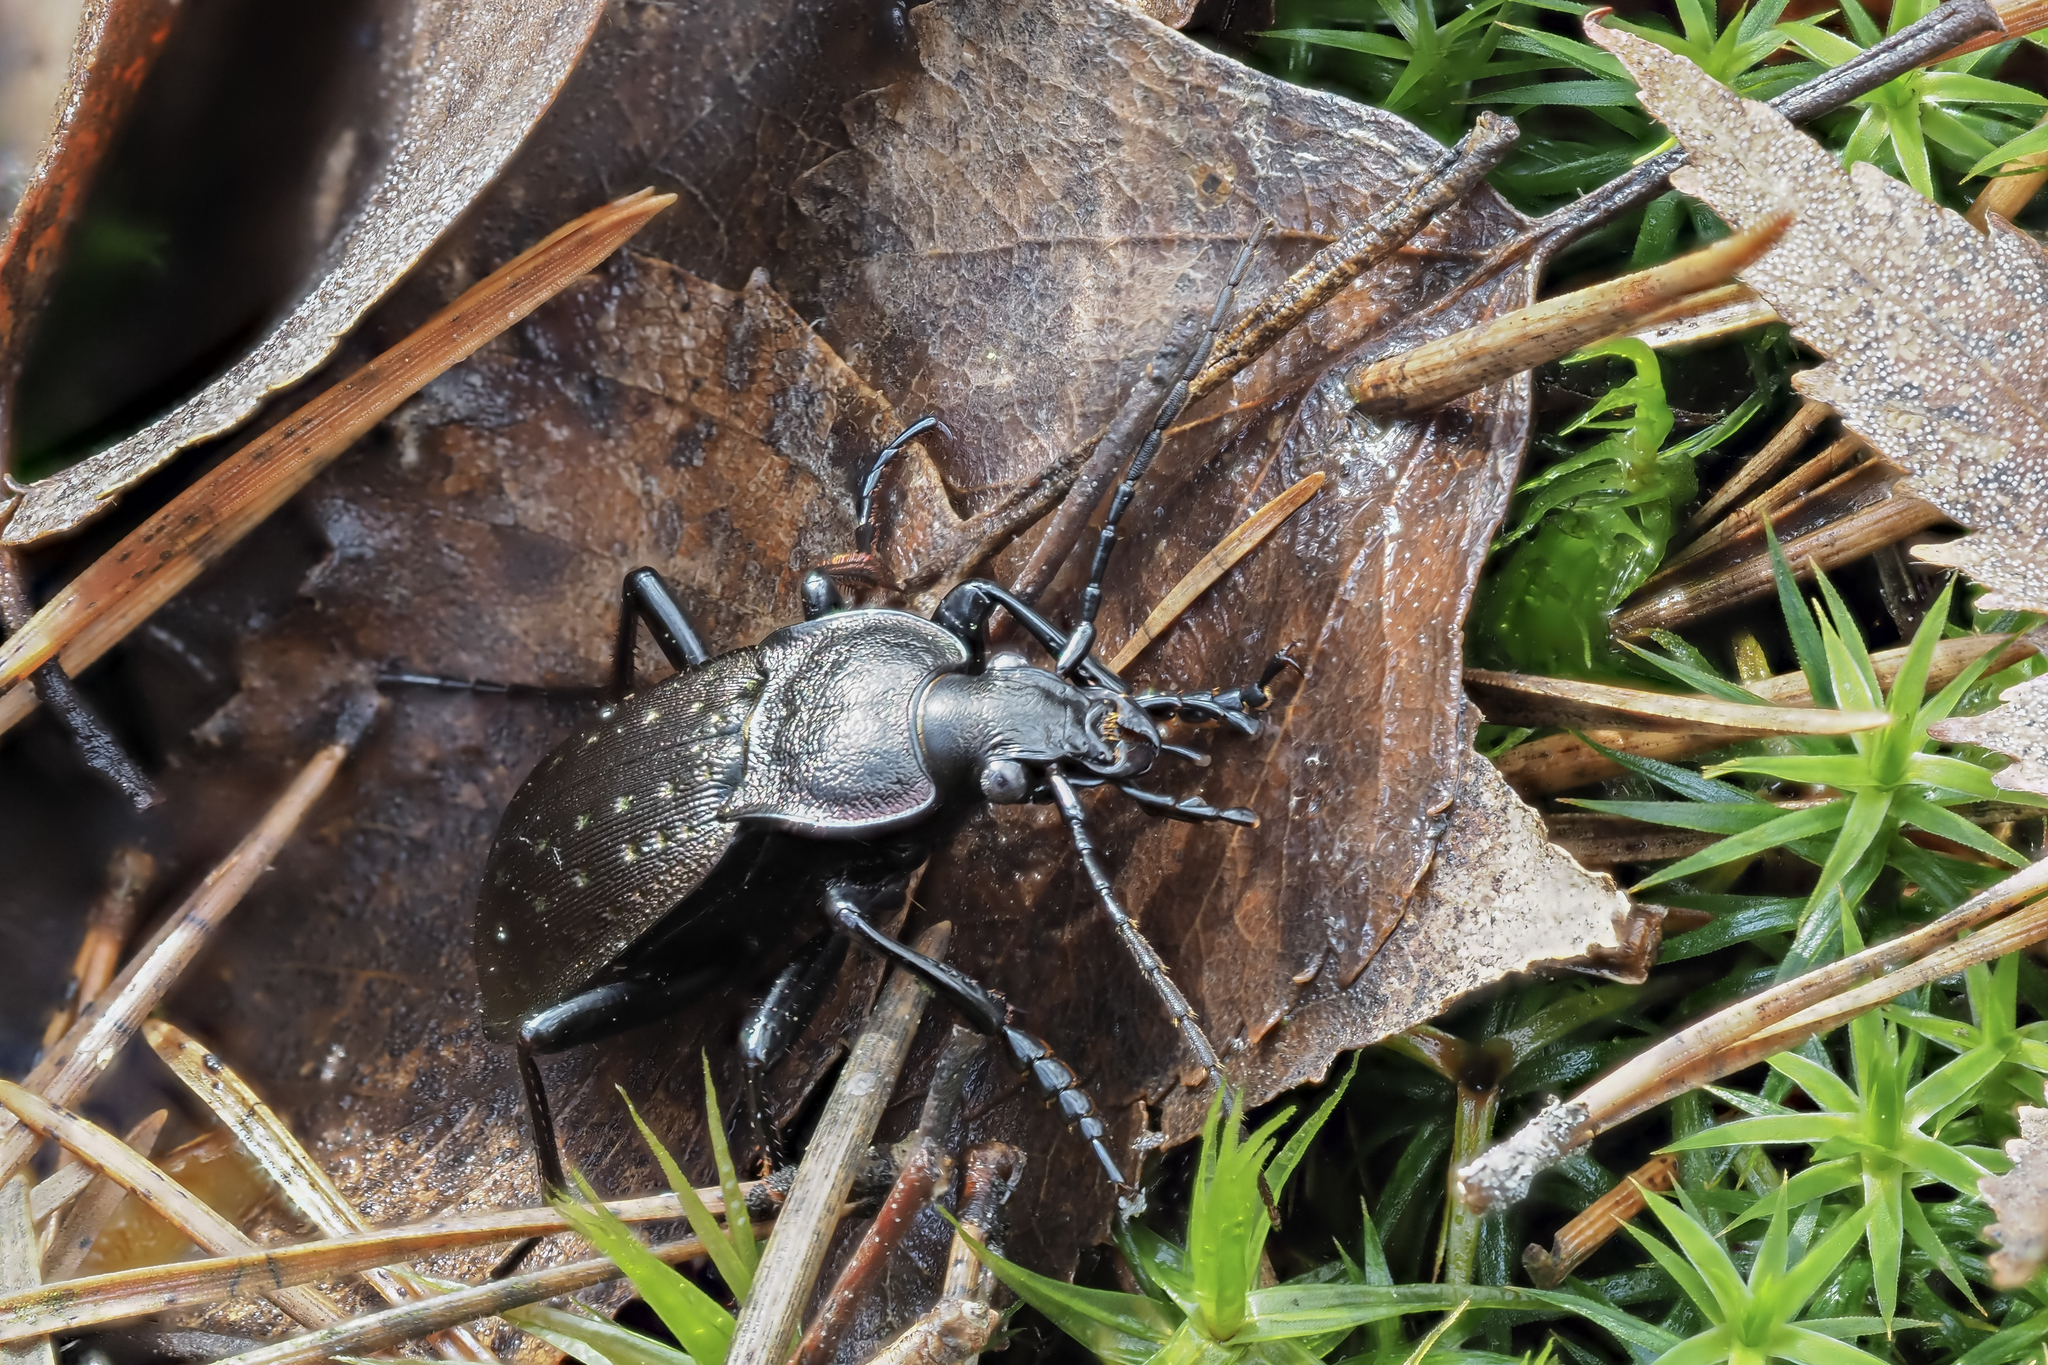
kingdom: Animalia
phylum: Arthropoda
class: Insecta
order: Coleoptera
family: Carabidae
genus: Carabus
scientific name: Carabus hortensis
